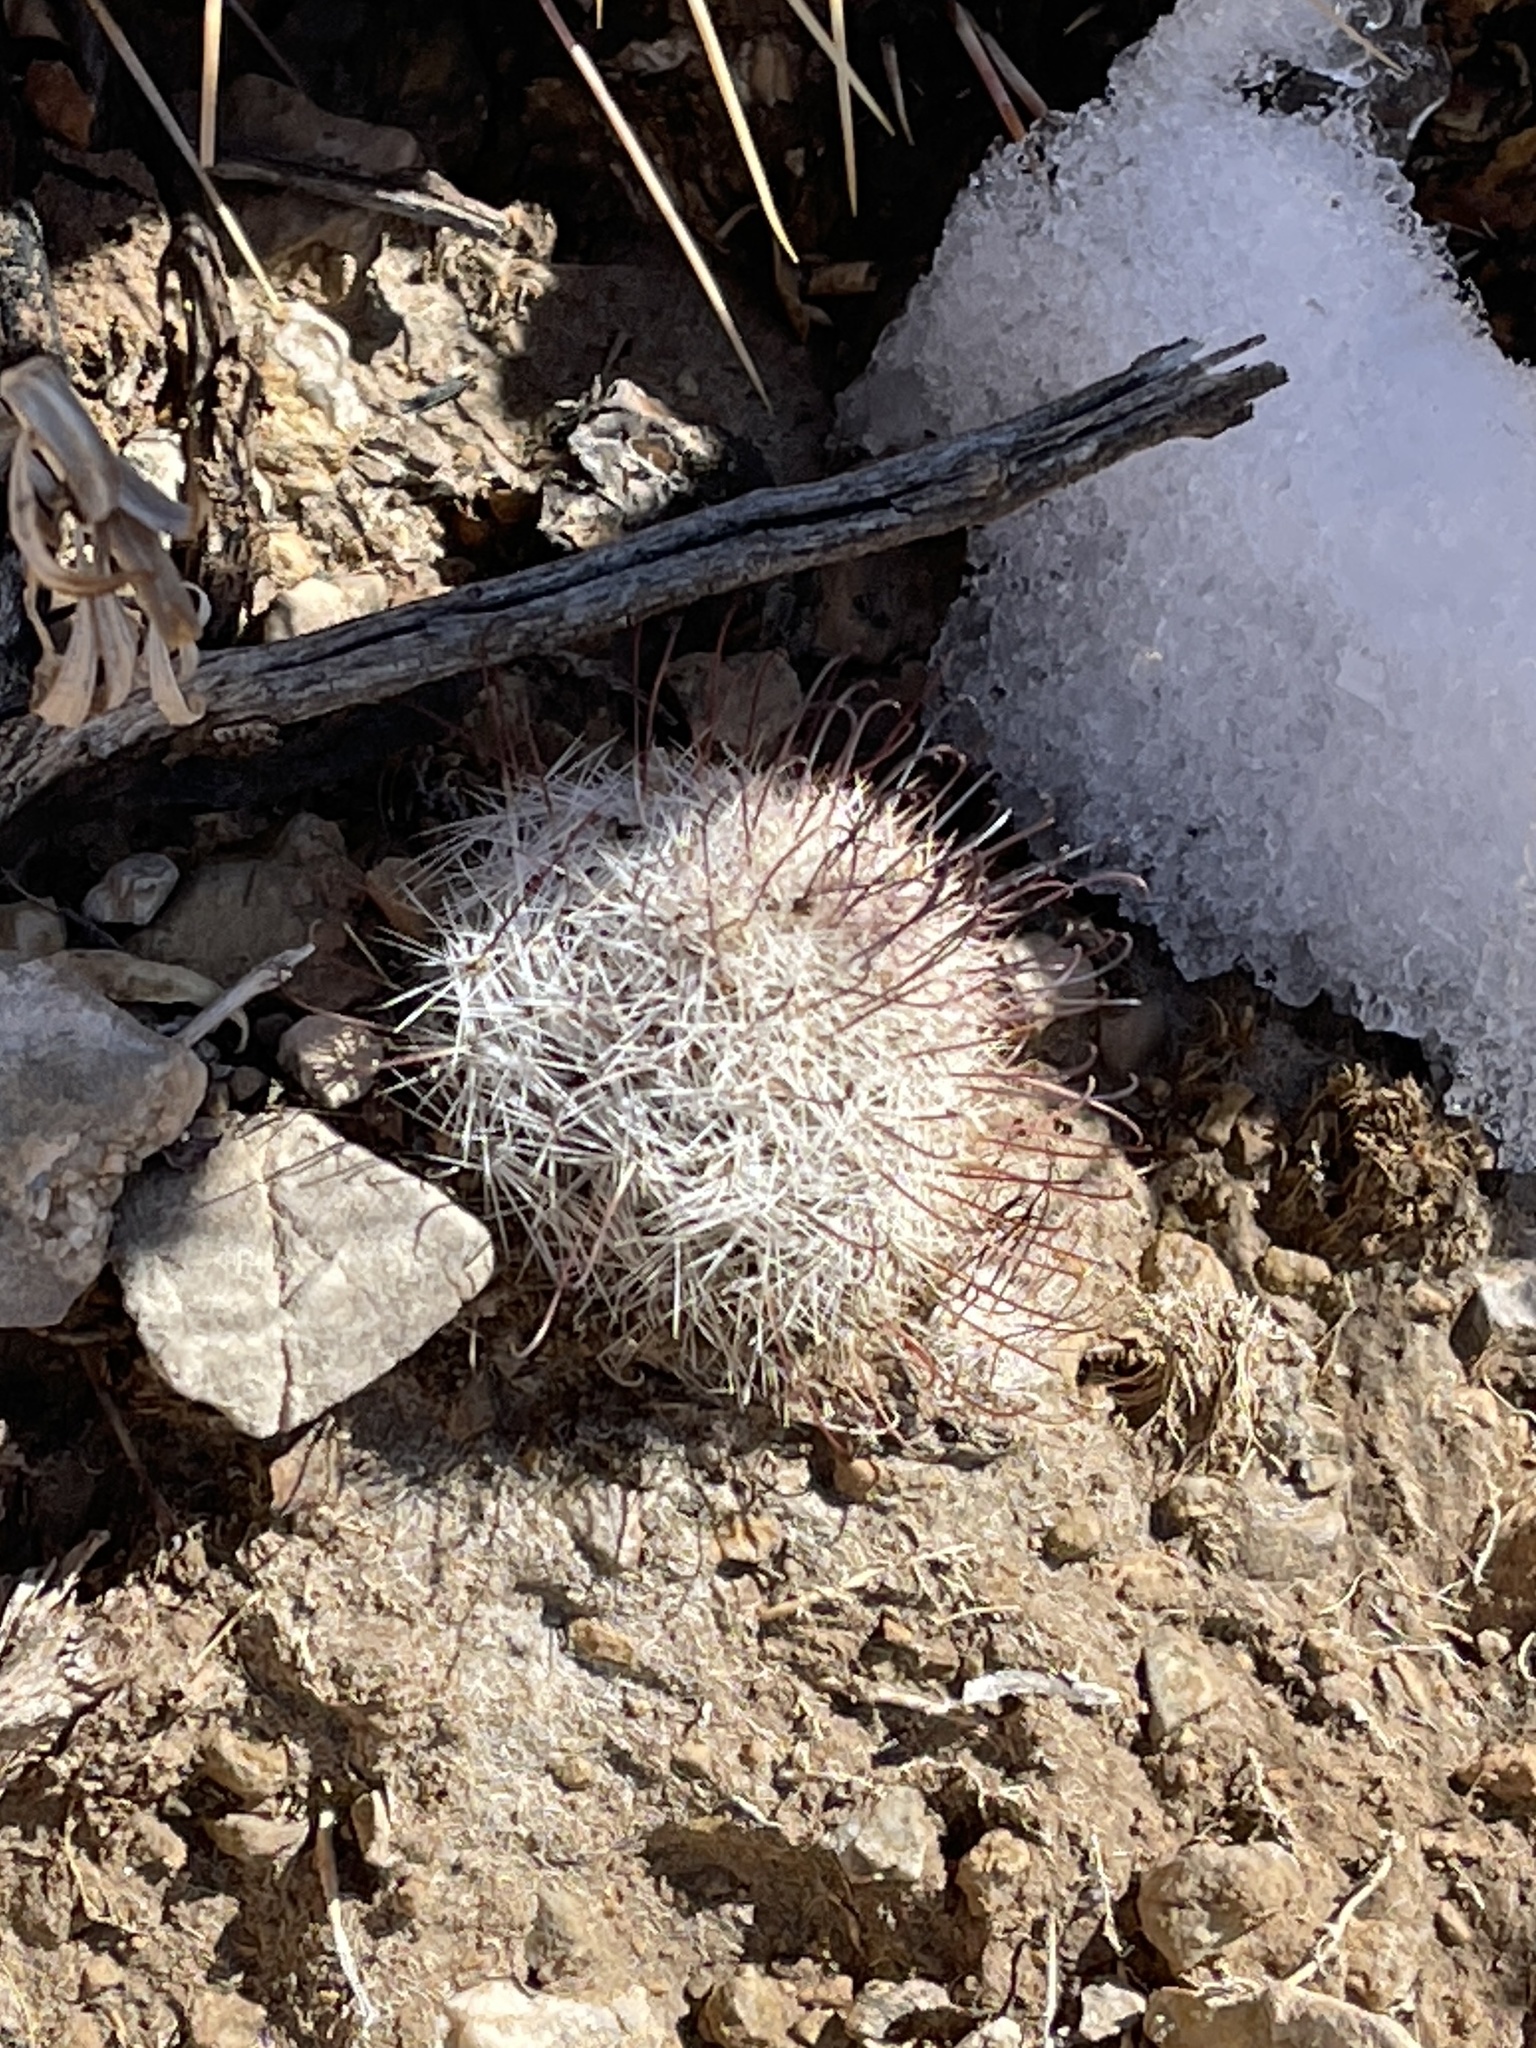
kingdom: Plantae
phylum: Tracheophyta
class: Magnoliopsida
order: Caryophyllales
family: Cactaceae
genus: Cochemiea
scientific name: Cochemiea grahamii
